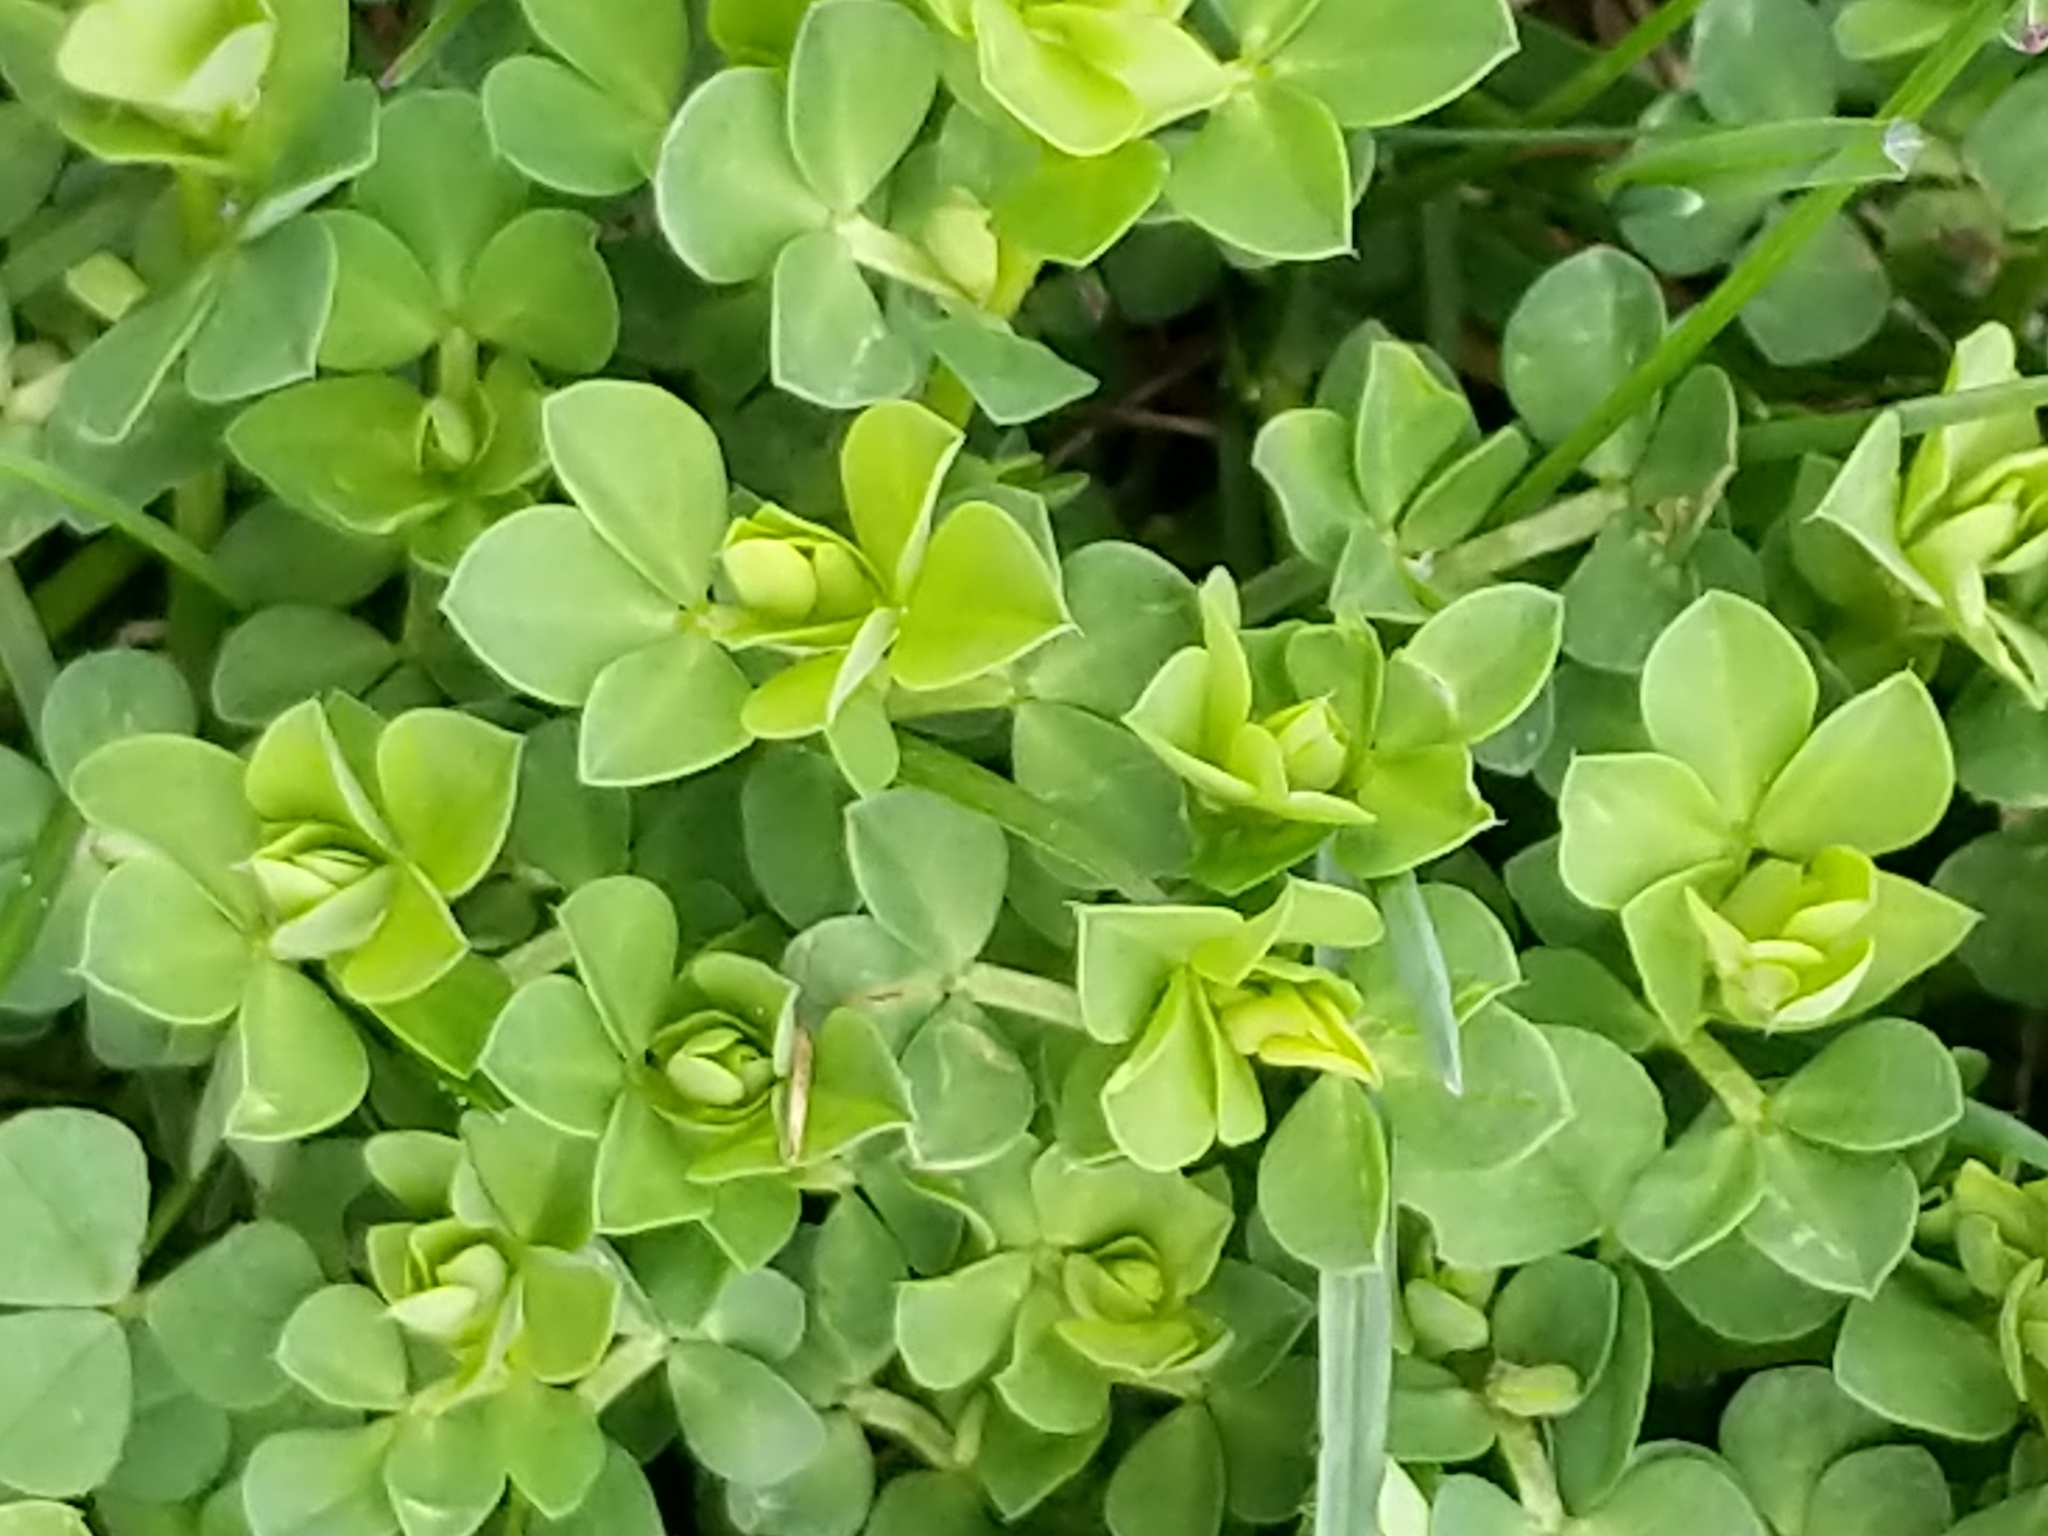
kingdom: Plantae
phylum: Tracheophyta
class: Magnoliopsida
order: Fabales
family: Fabaceae
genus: Lotus
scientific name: Lotus corniculatus
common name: Common bird's-foot-trefoil
